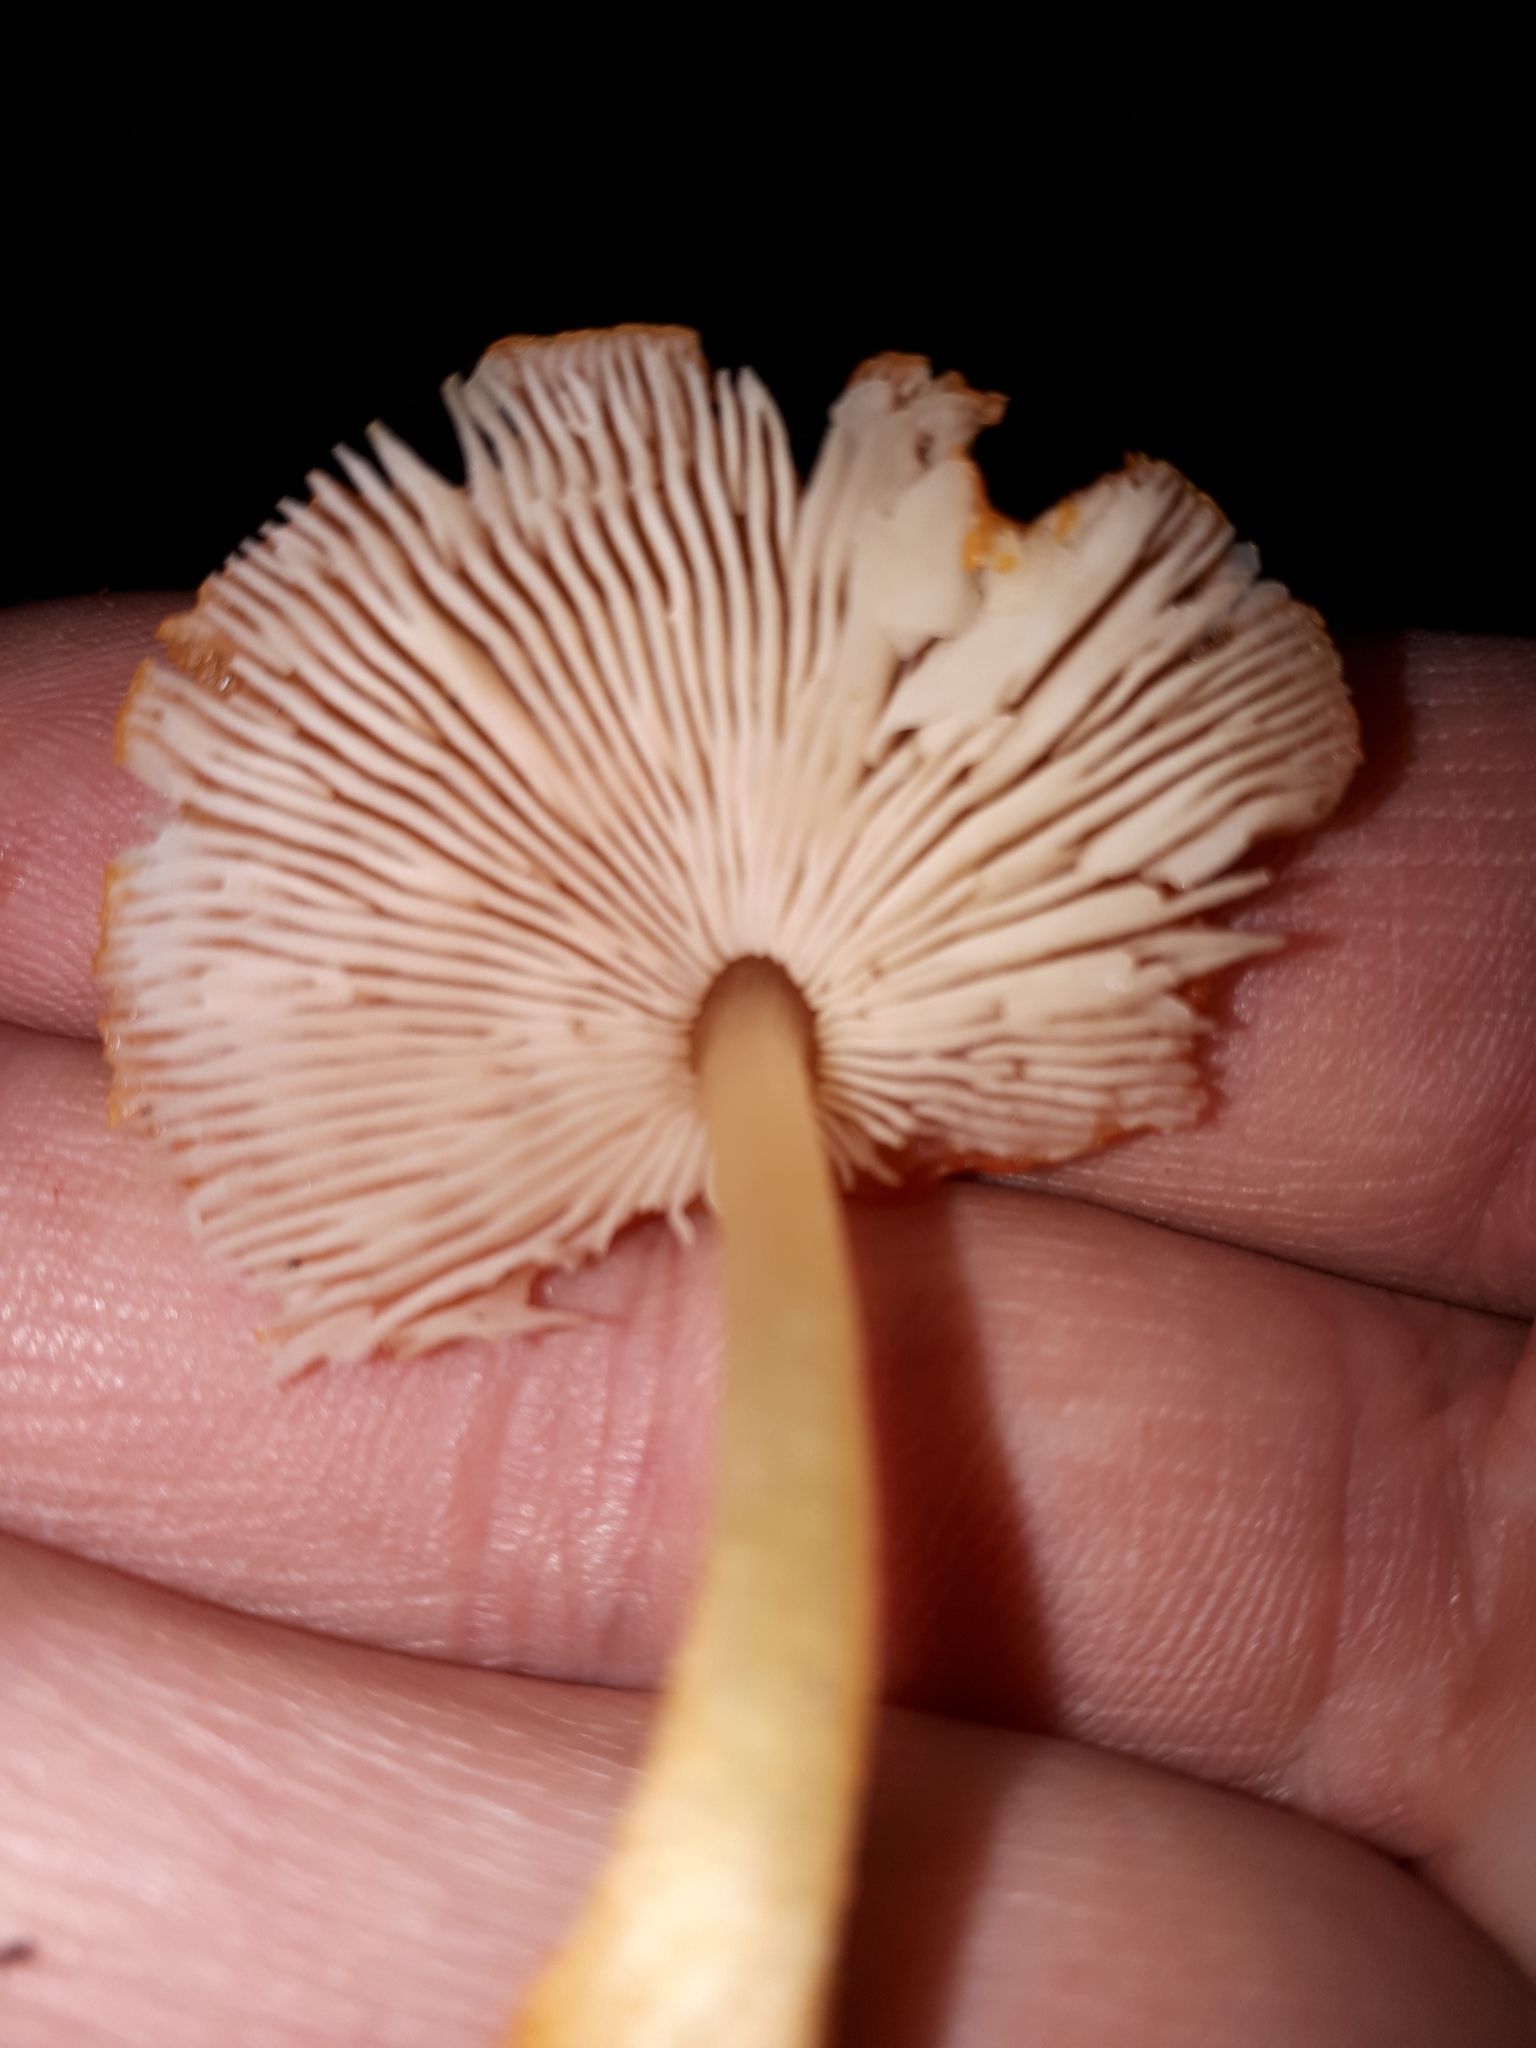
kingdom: Fungi
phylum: Basidiomycota
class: Agaricomycetes
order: Agaricales
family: Pluteaceae
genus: Pluteus
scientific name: Pluteus aurantiorugosus
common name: Flame shield
